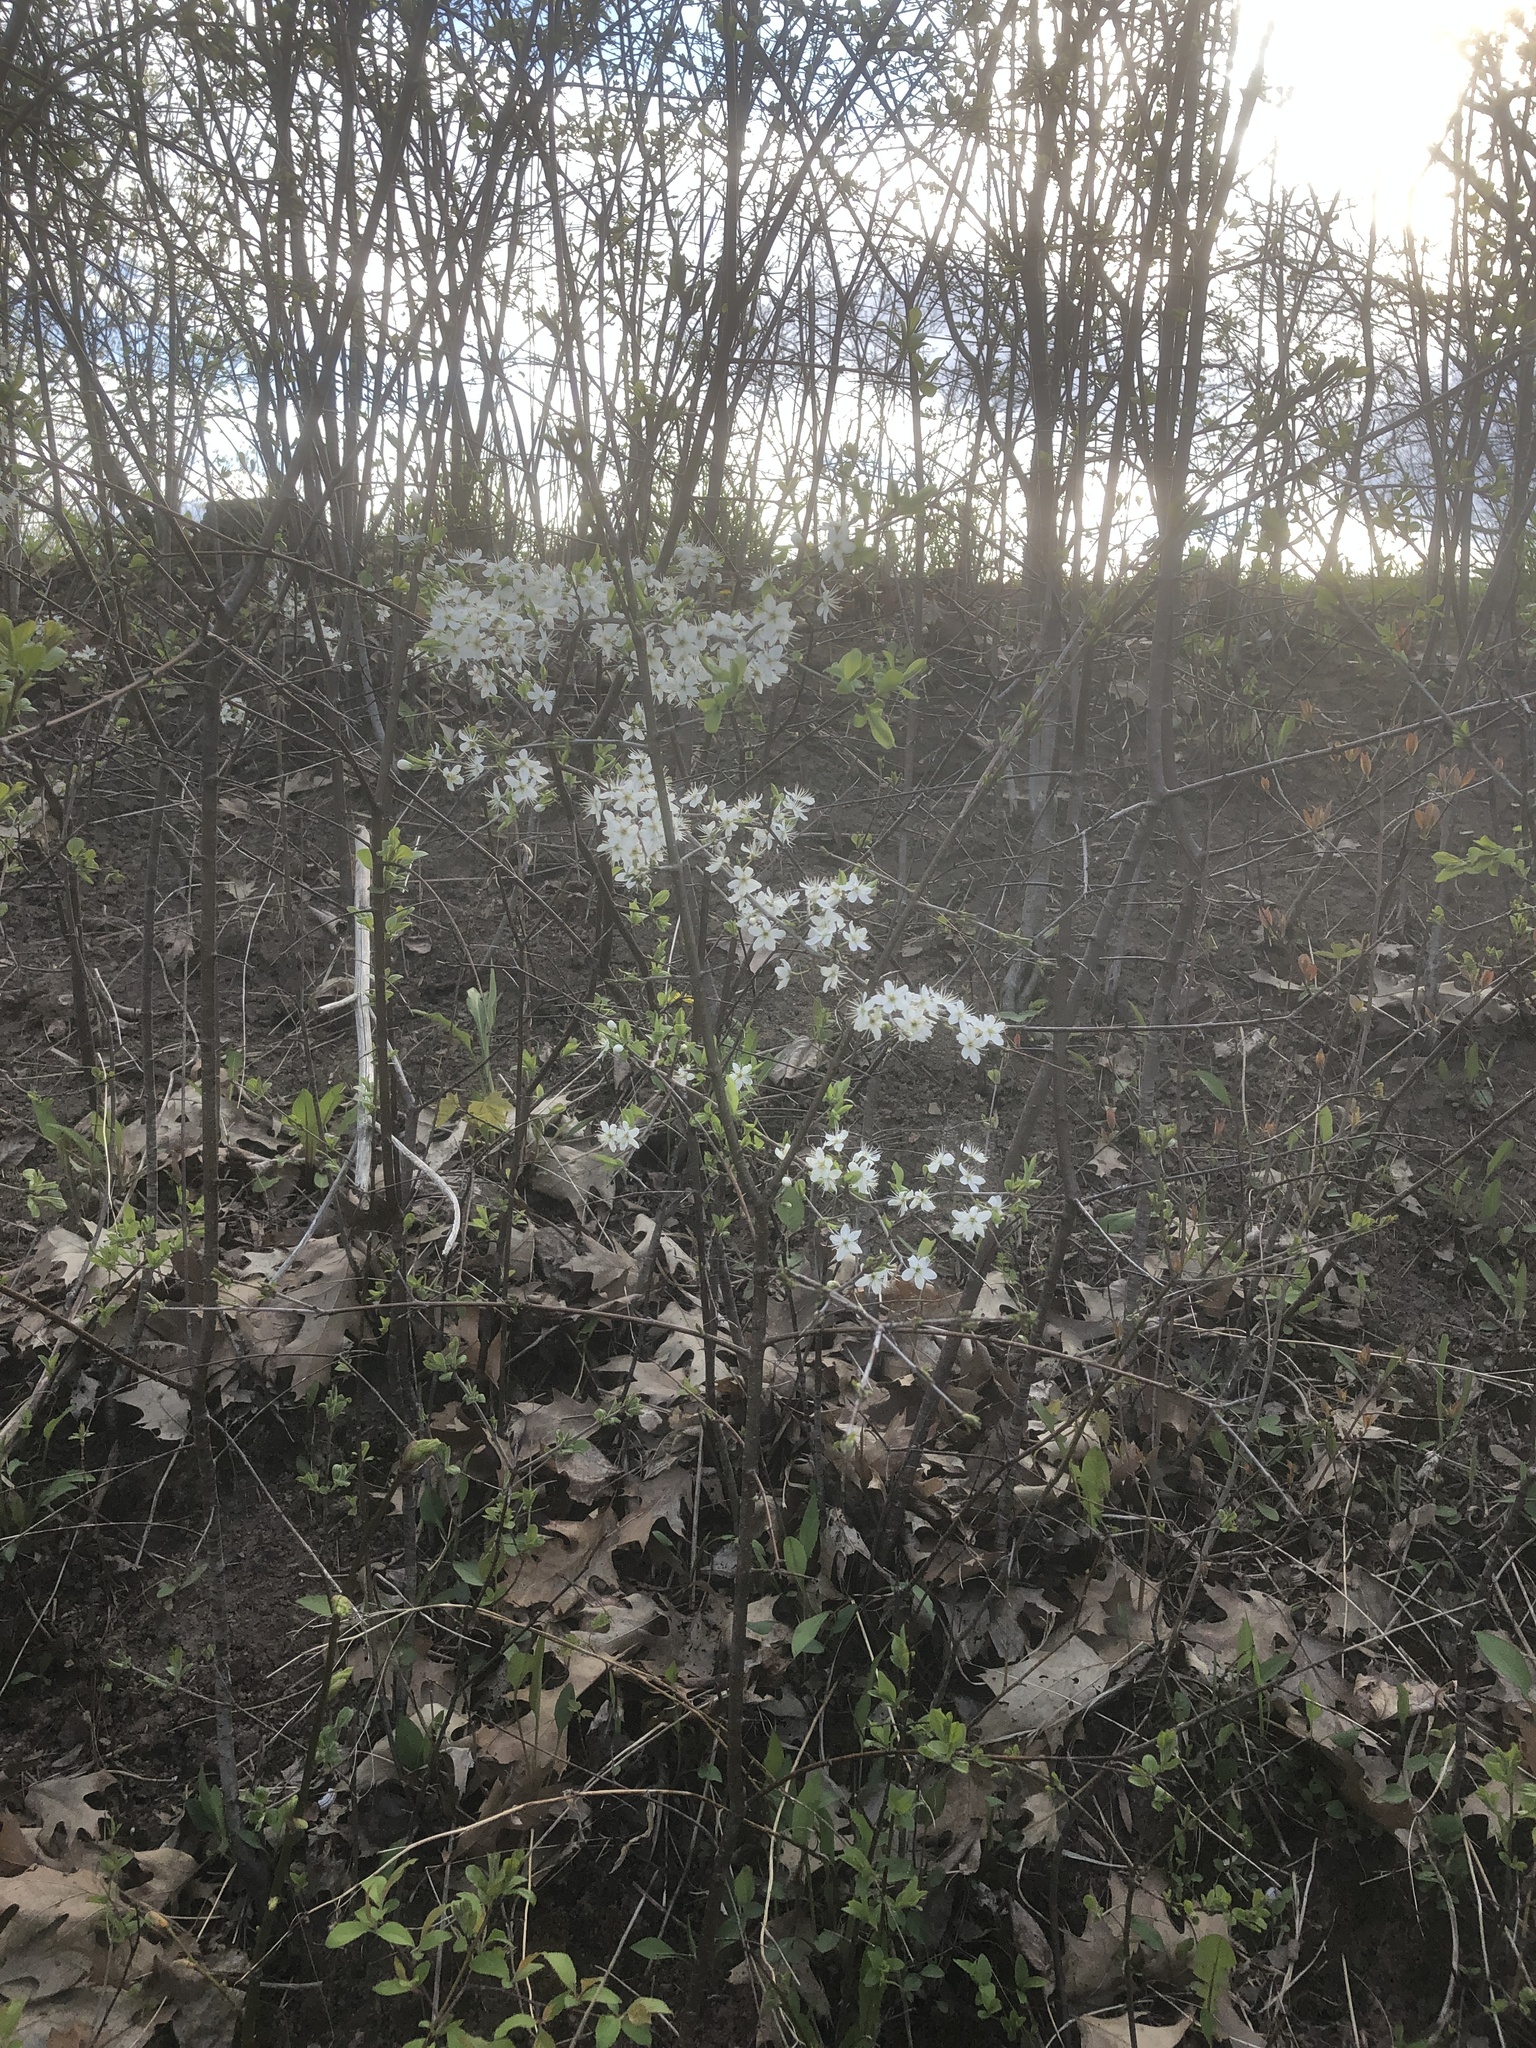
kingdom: Plantae
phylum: Tracheophyta
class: Magnoliopsida
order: Rosales
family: Rosaceae
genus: Prunus
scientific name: Prunus americana
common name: American plum
